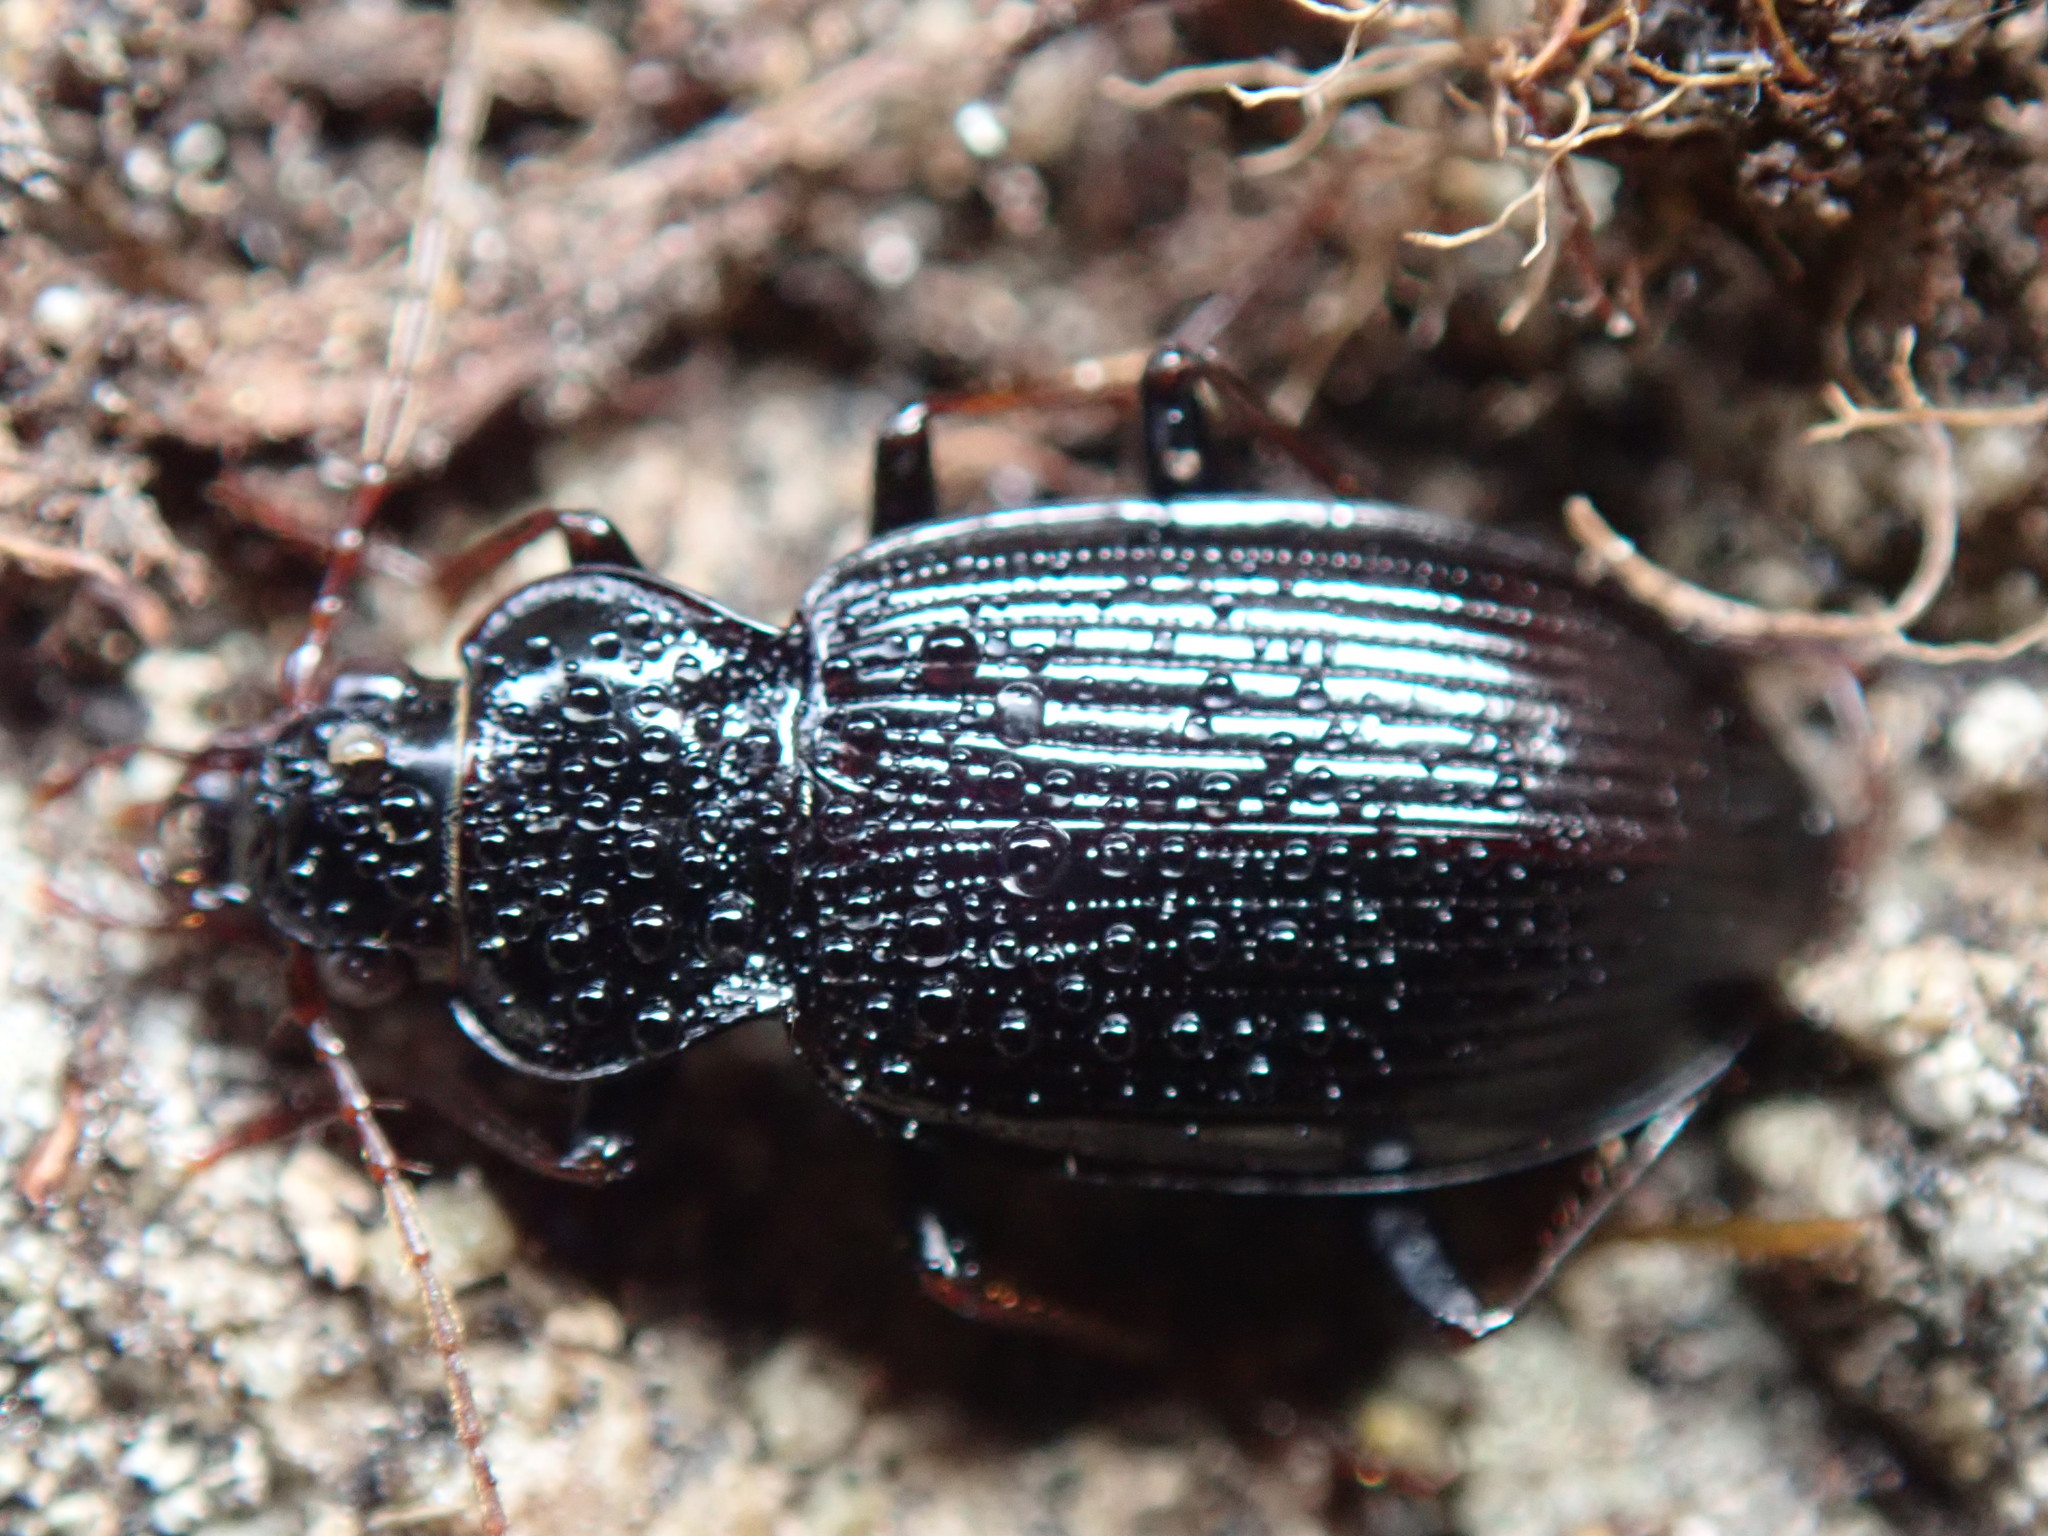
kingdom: Animalia
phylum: Arthropoda
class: Insecta
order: Coleoptera
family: Carabidae
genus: Nebria
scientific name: Nebria brevicollis
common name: Short-necked gazelle beetle
